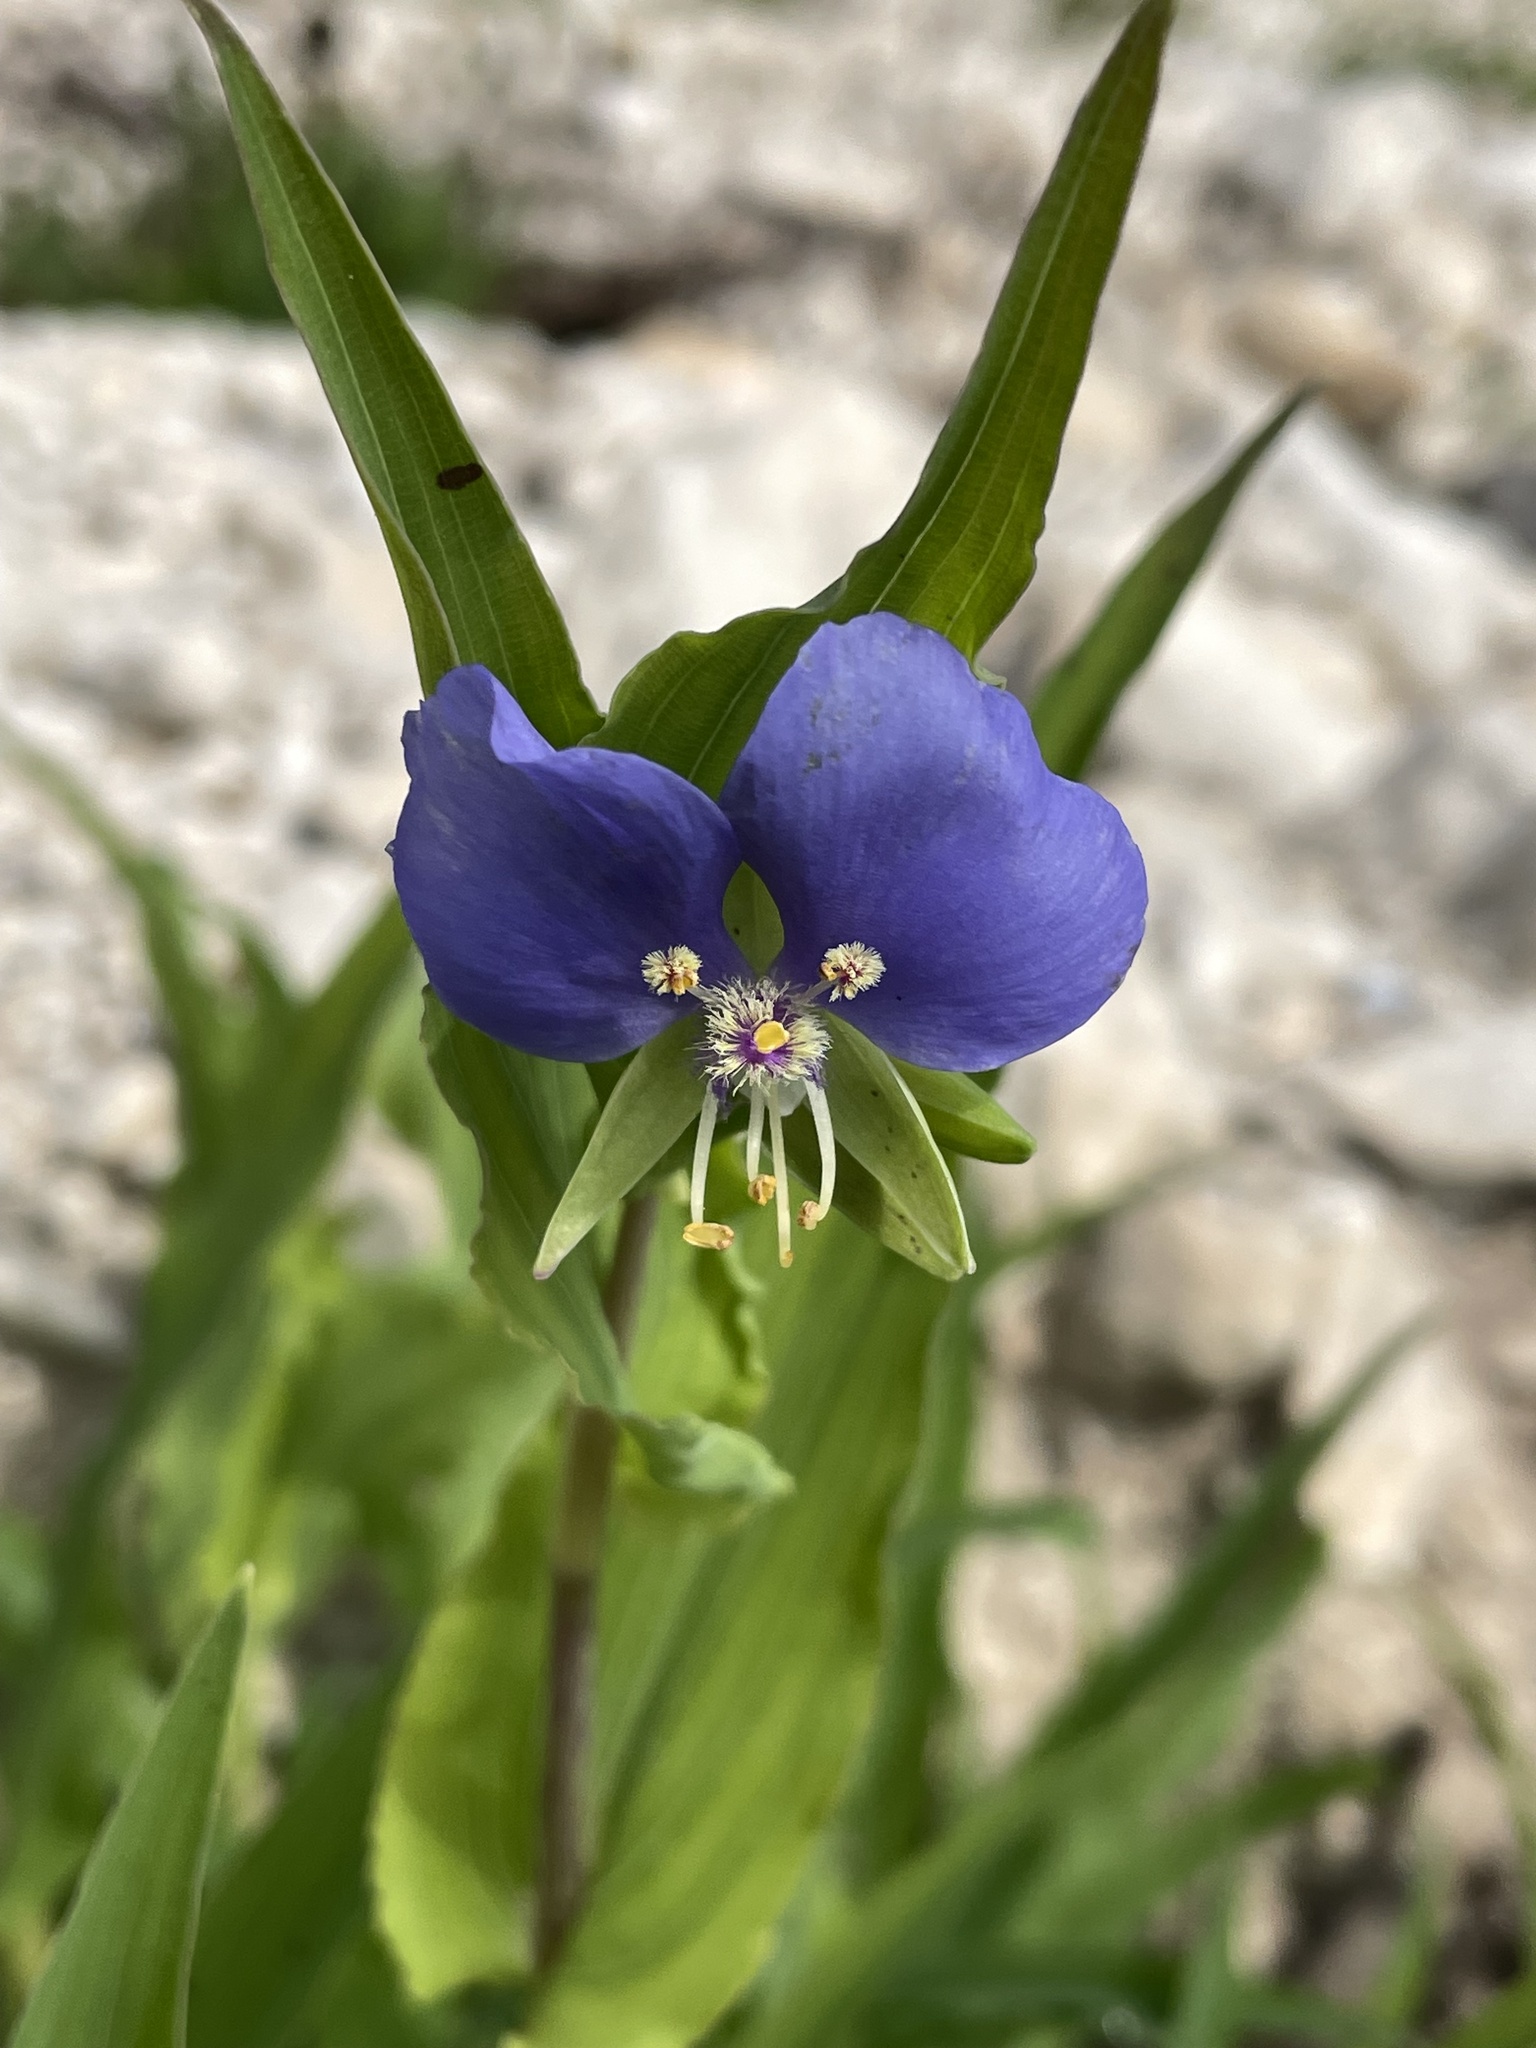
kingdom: Plantae
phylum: Tracheophyta
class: Liliopsida
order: Commelinales
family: Commelinaceae
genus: Tinantia
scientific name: Tinantia anomala
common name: False dayflower
